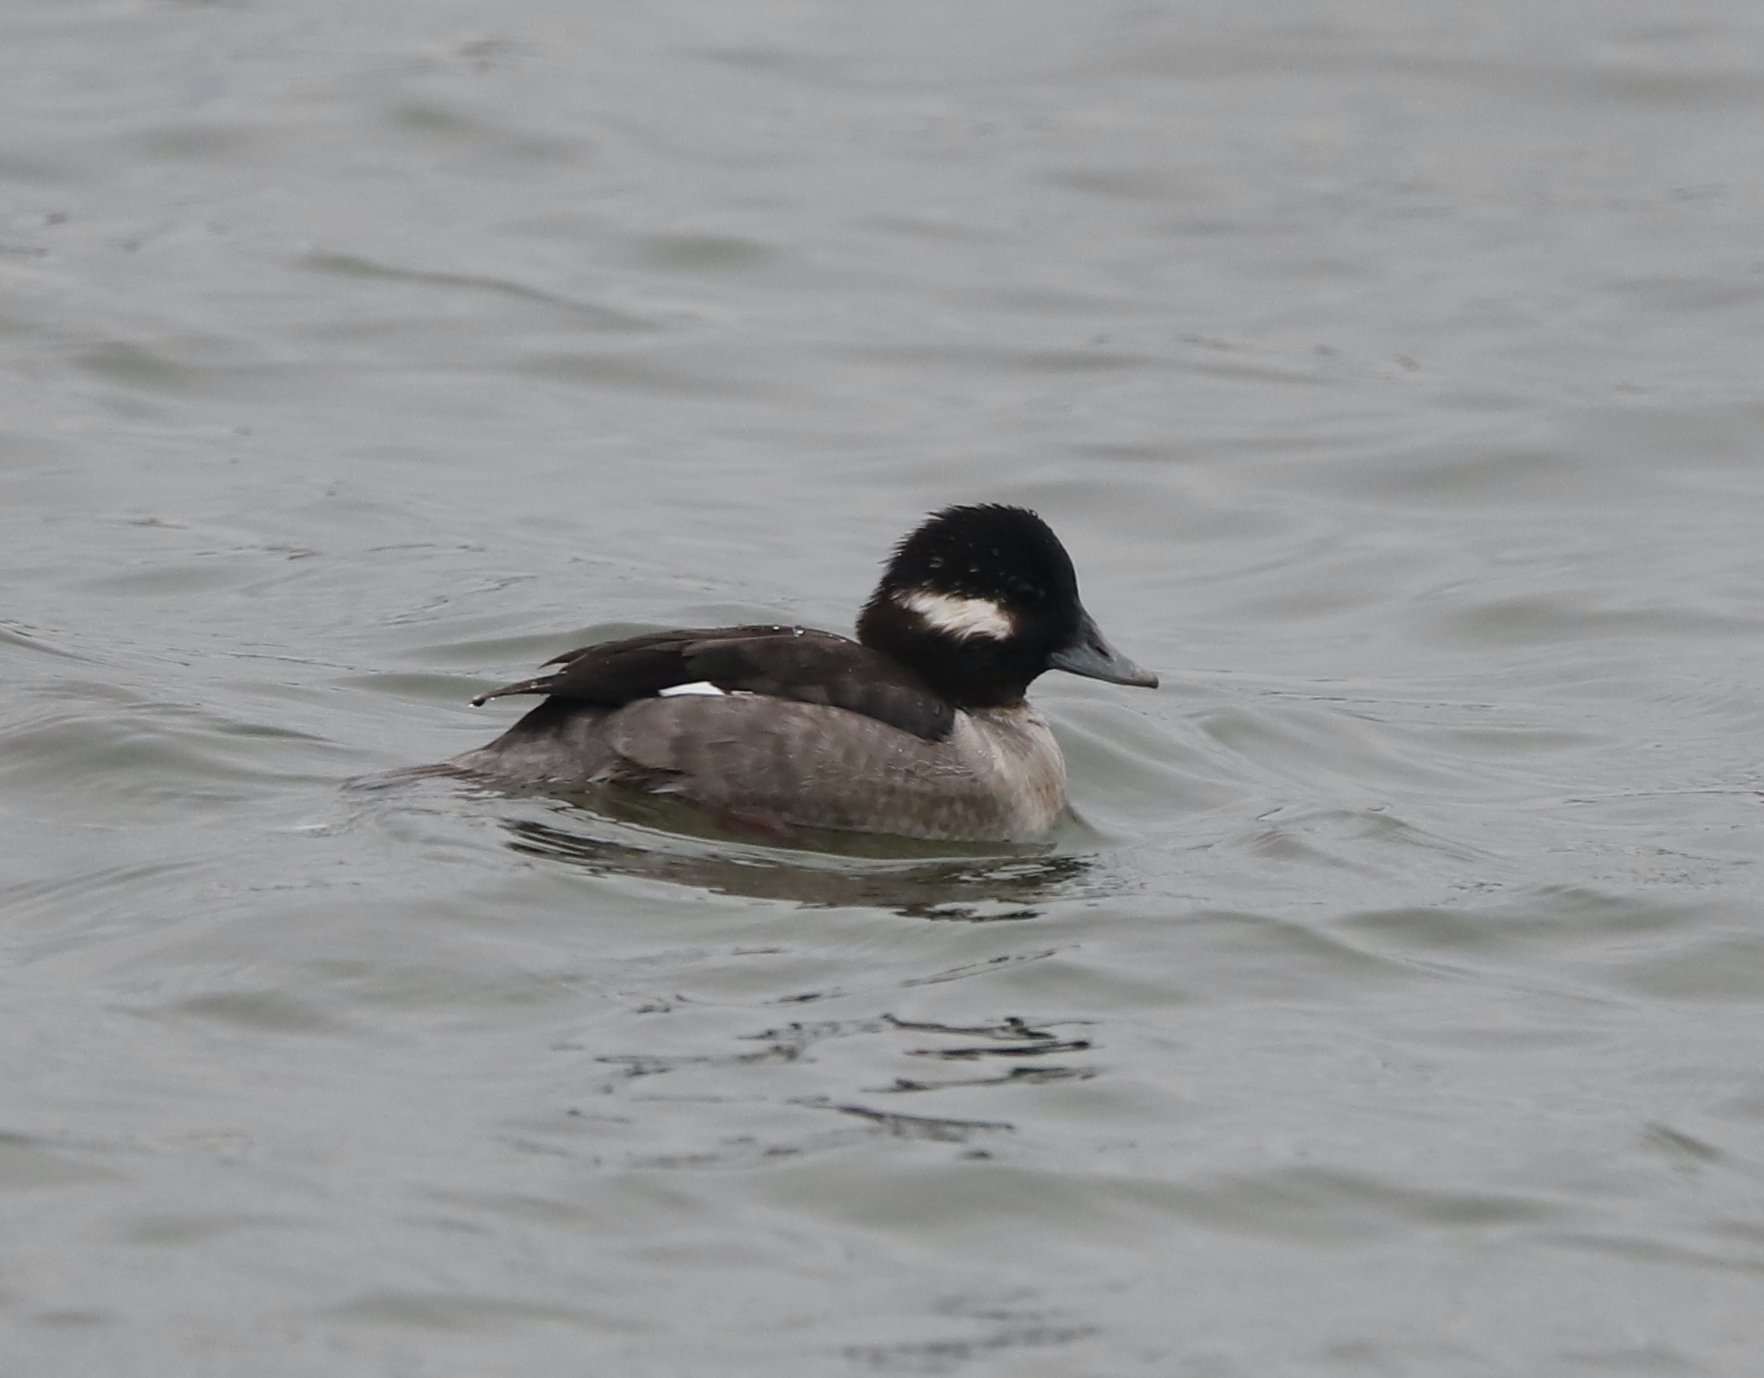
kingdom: Animalia
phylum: Chordata
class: Aves
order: Anseriformes
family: Anatidae
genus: Bucephala
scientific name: Bucephala albeola
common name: Bufflehead
